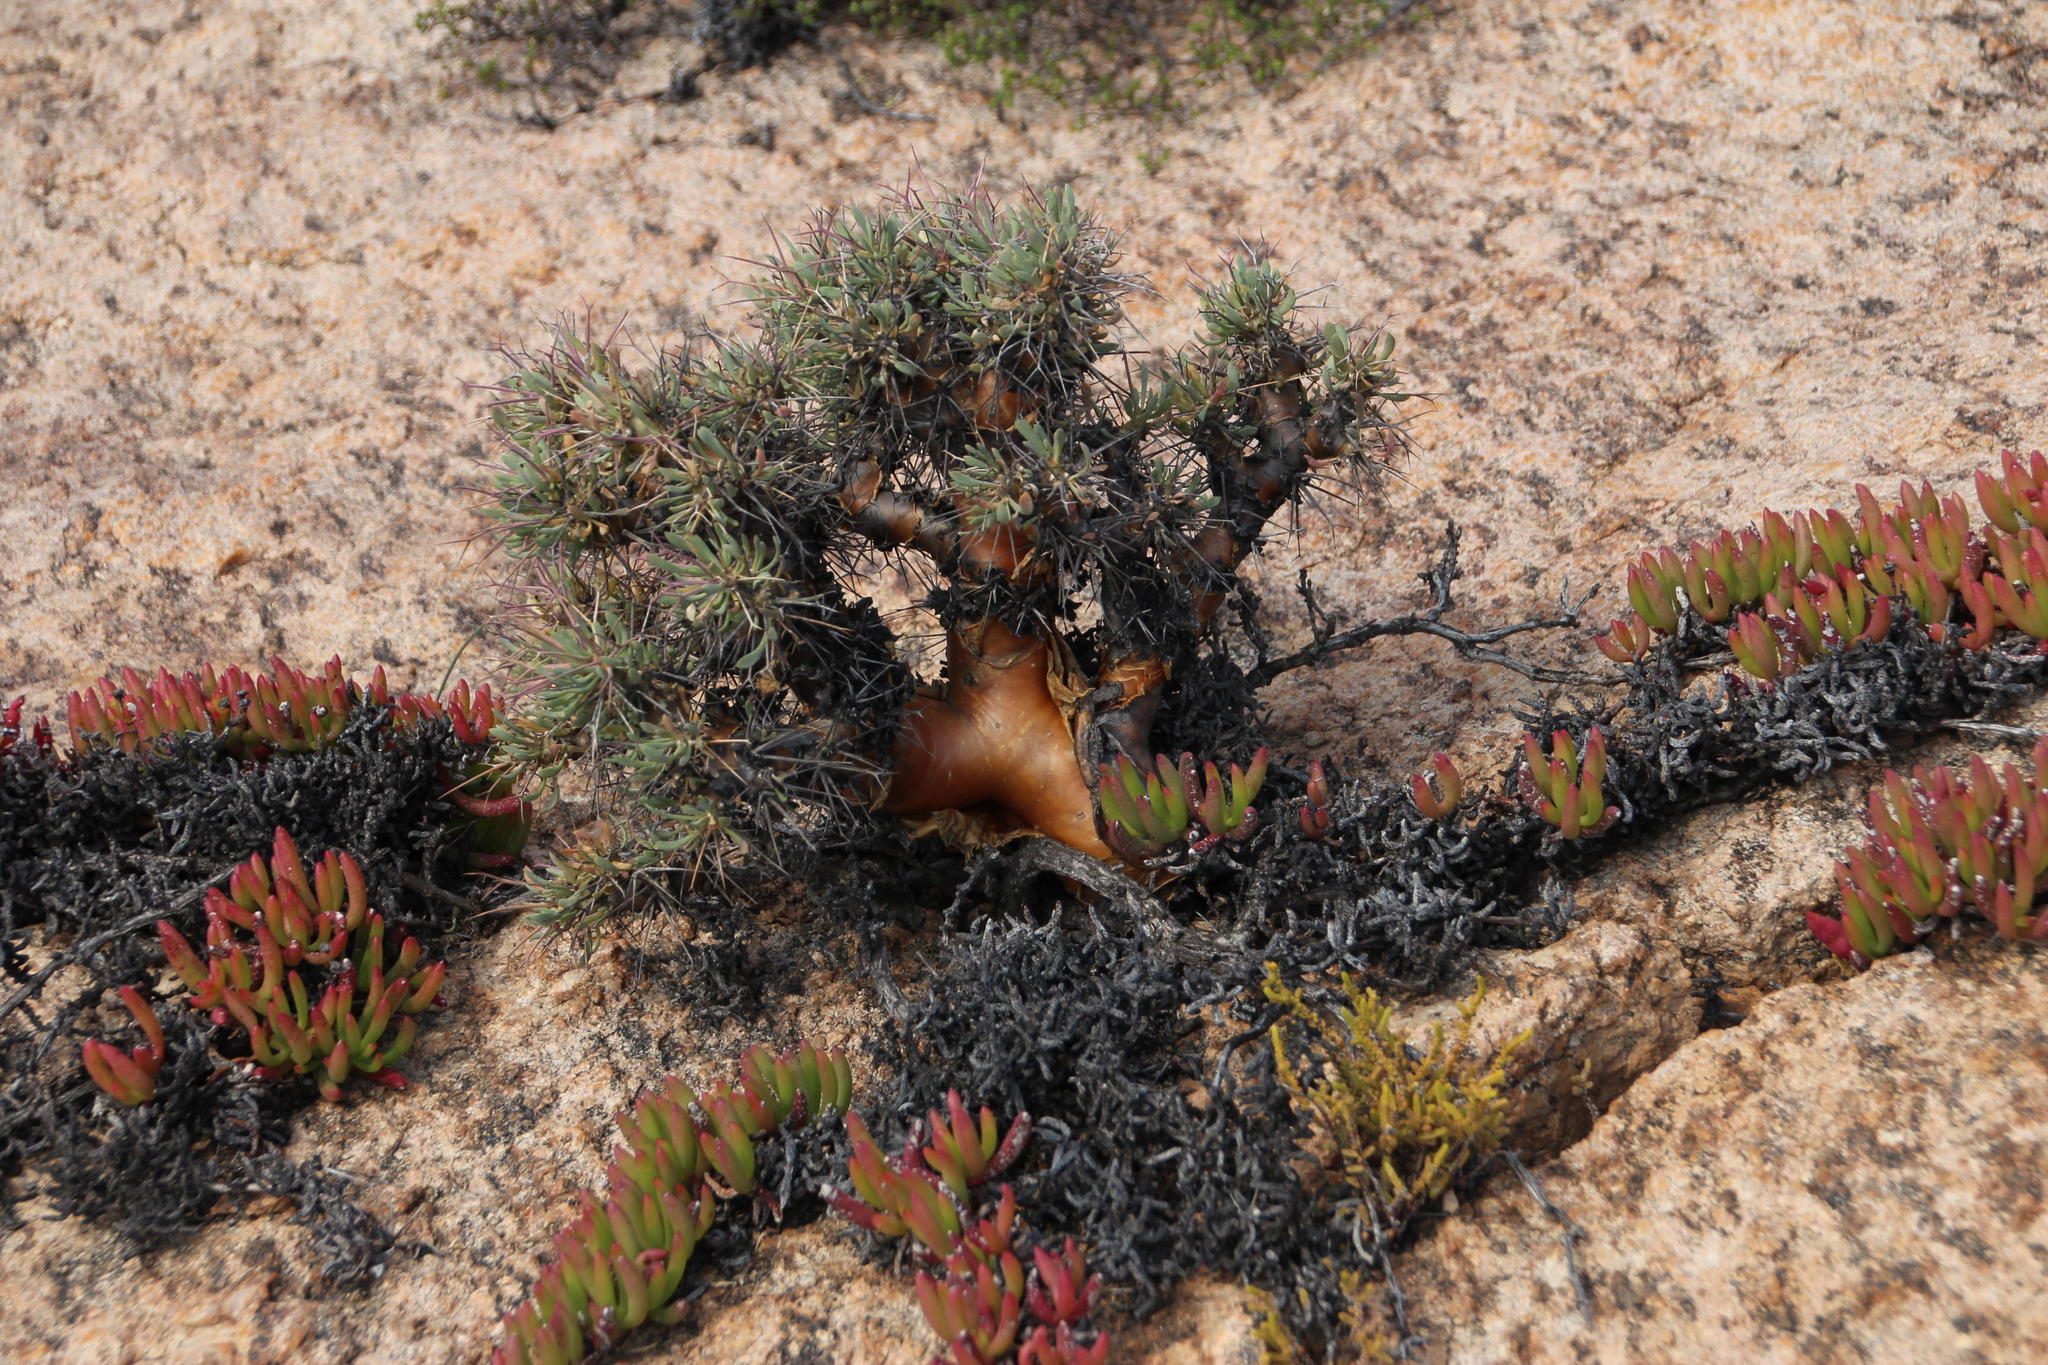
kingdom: Plantae
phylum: Tracheophyta
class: Magnoliopsida
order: Asterales
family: Asteraceae
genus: Othonna
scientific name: Othonna euphorbioides
